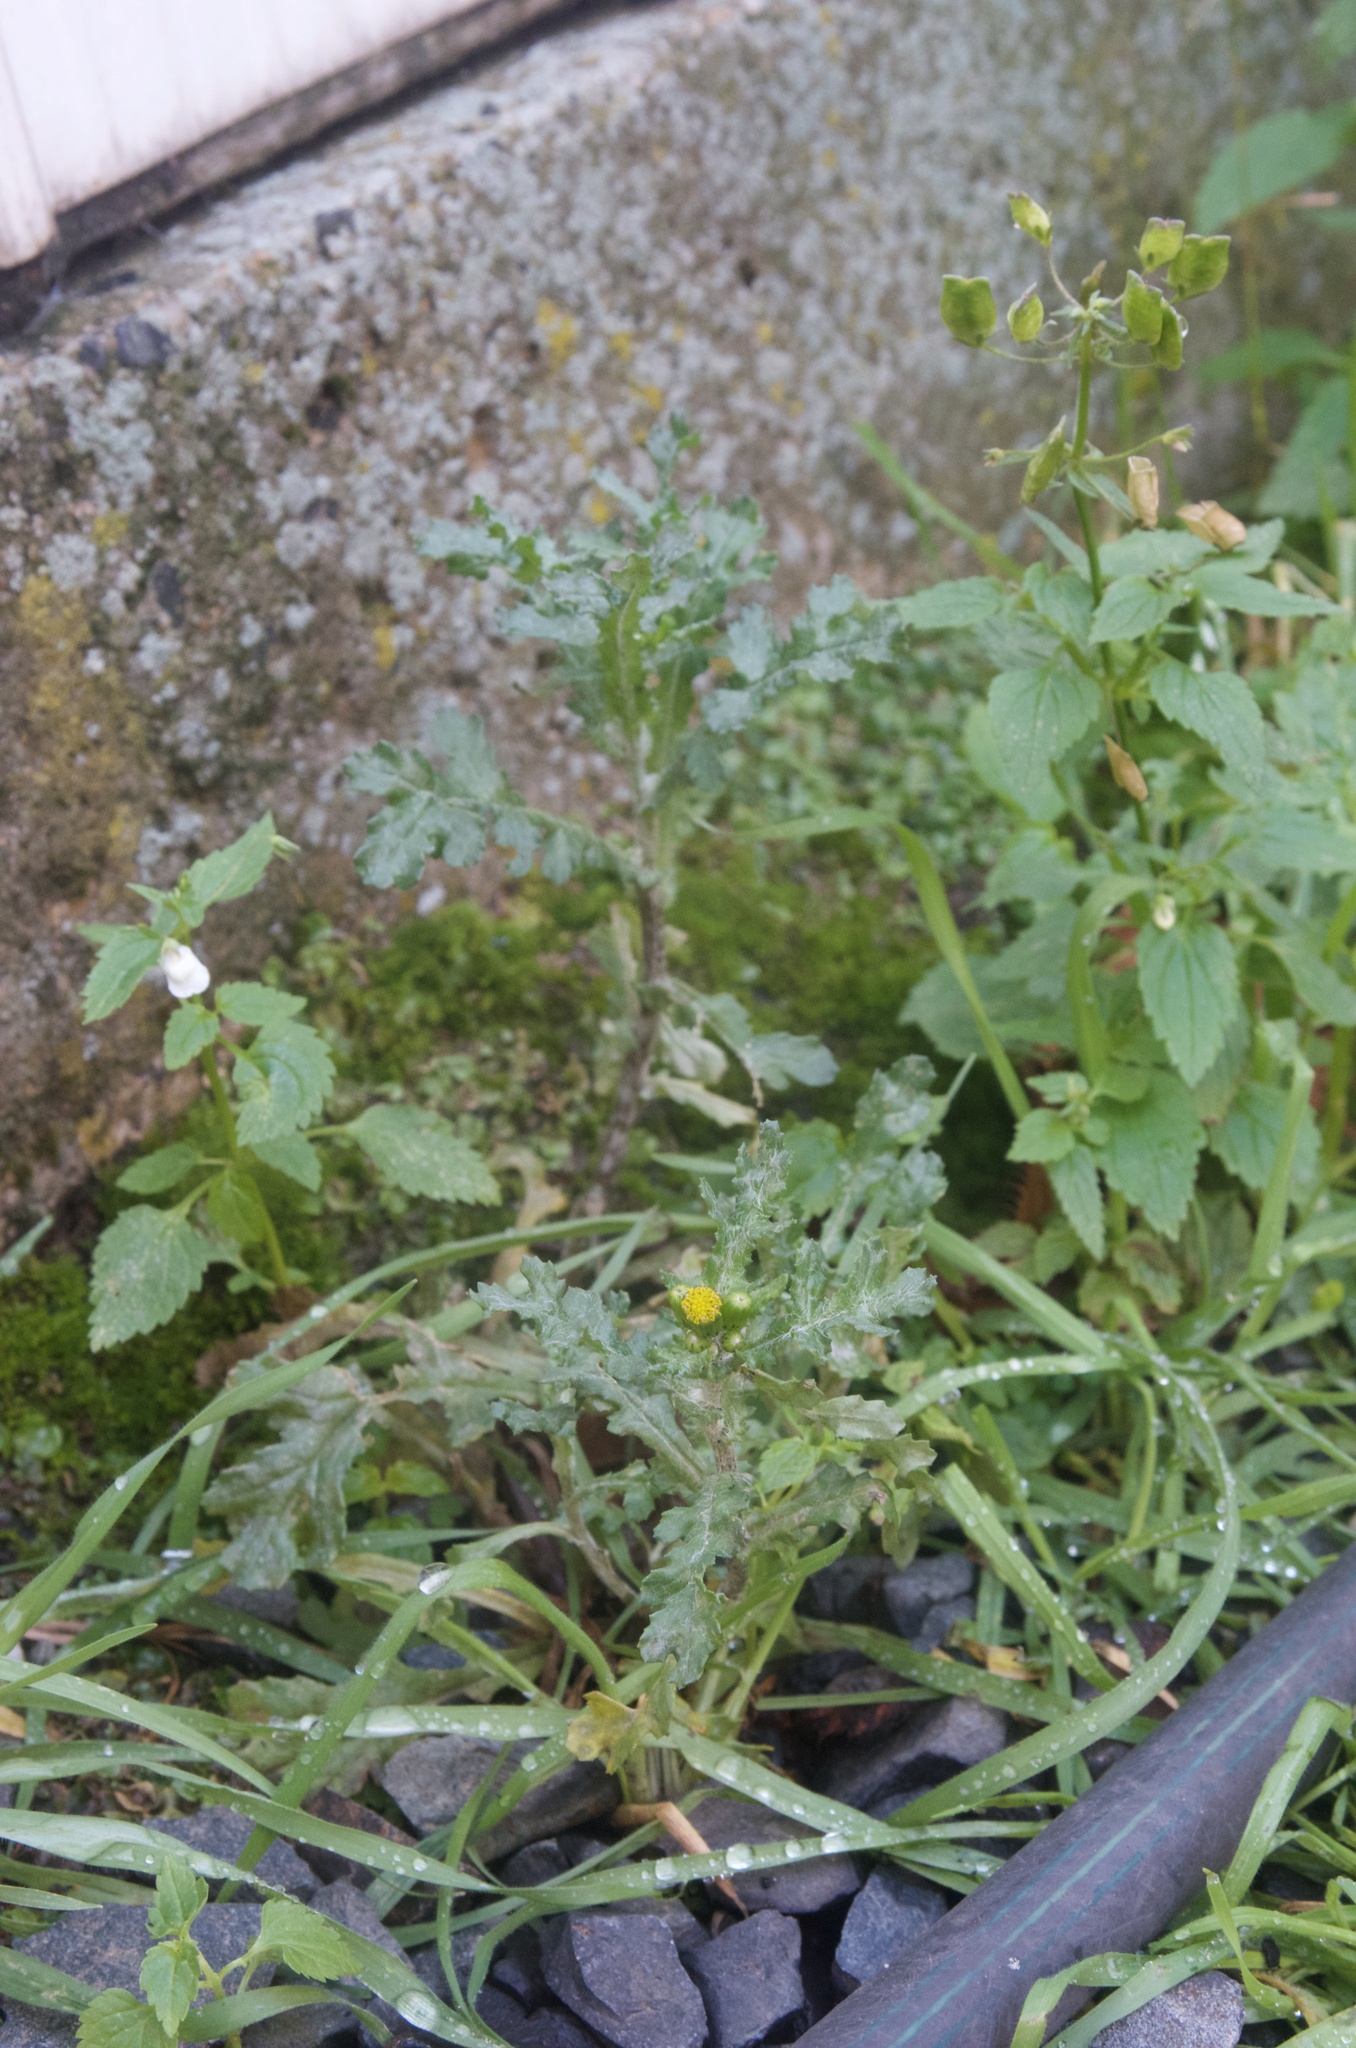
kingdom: Plantae
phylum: Tracheophyta
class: Magnoliopsida
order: Asterales
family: Asteraceae
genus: Senecio
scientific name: Senecio vulgaris
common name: Old-man-in-the-spring
